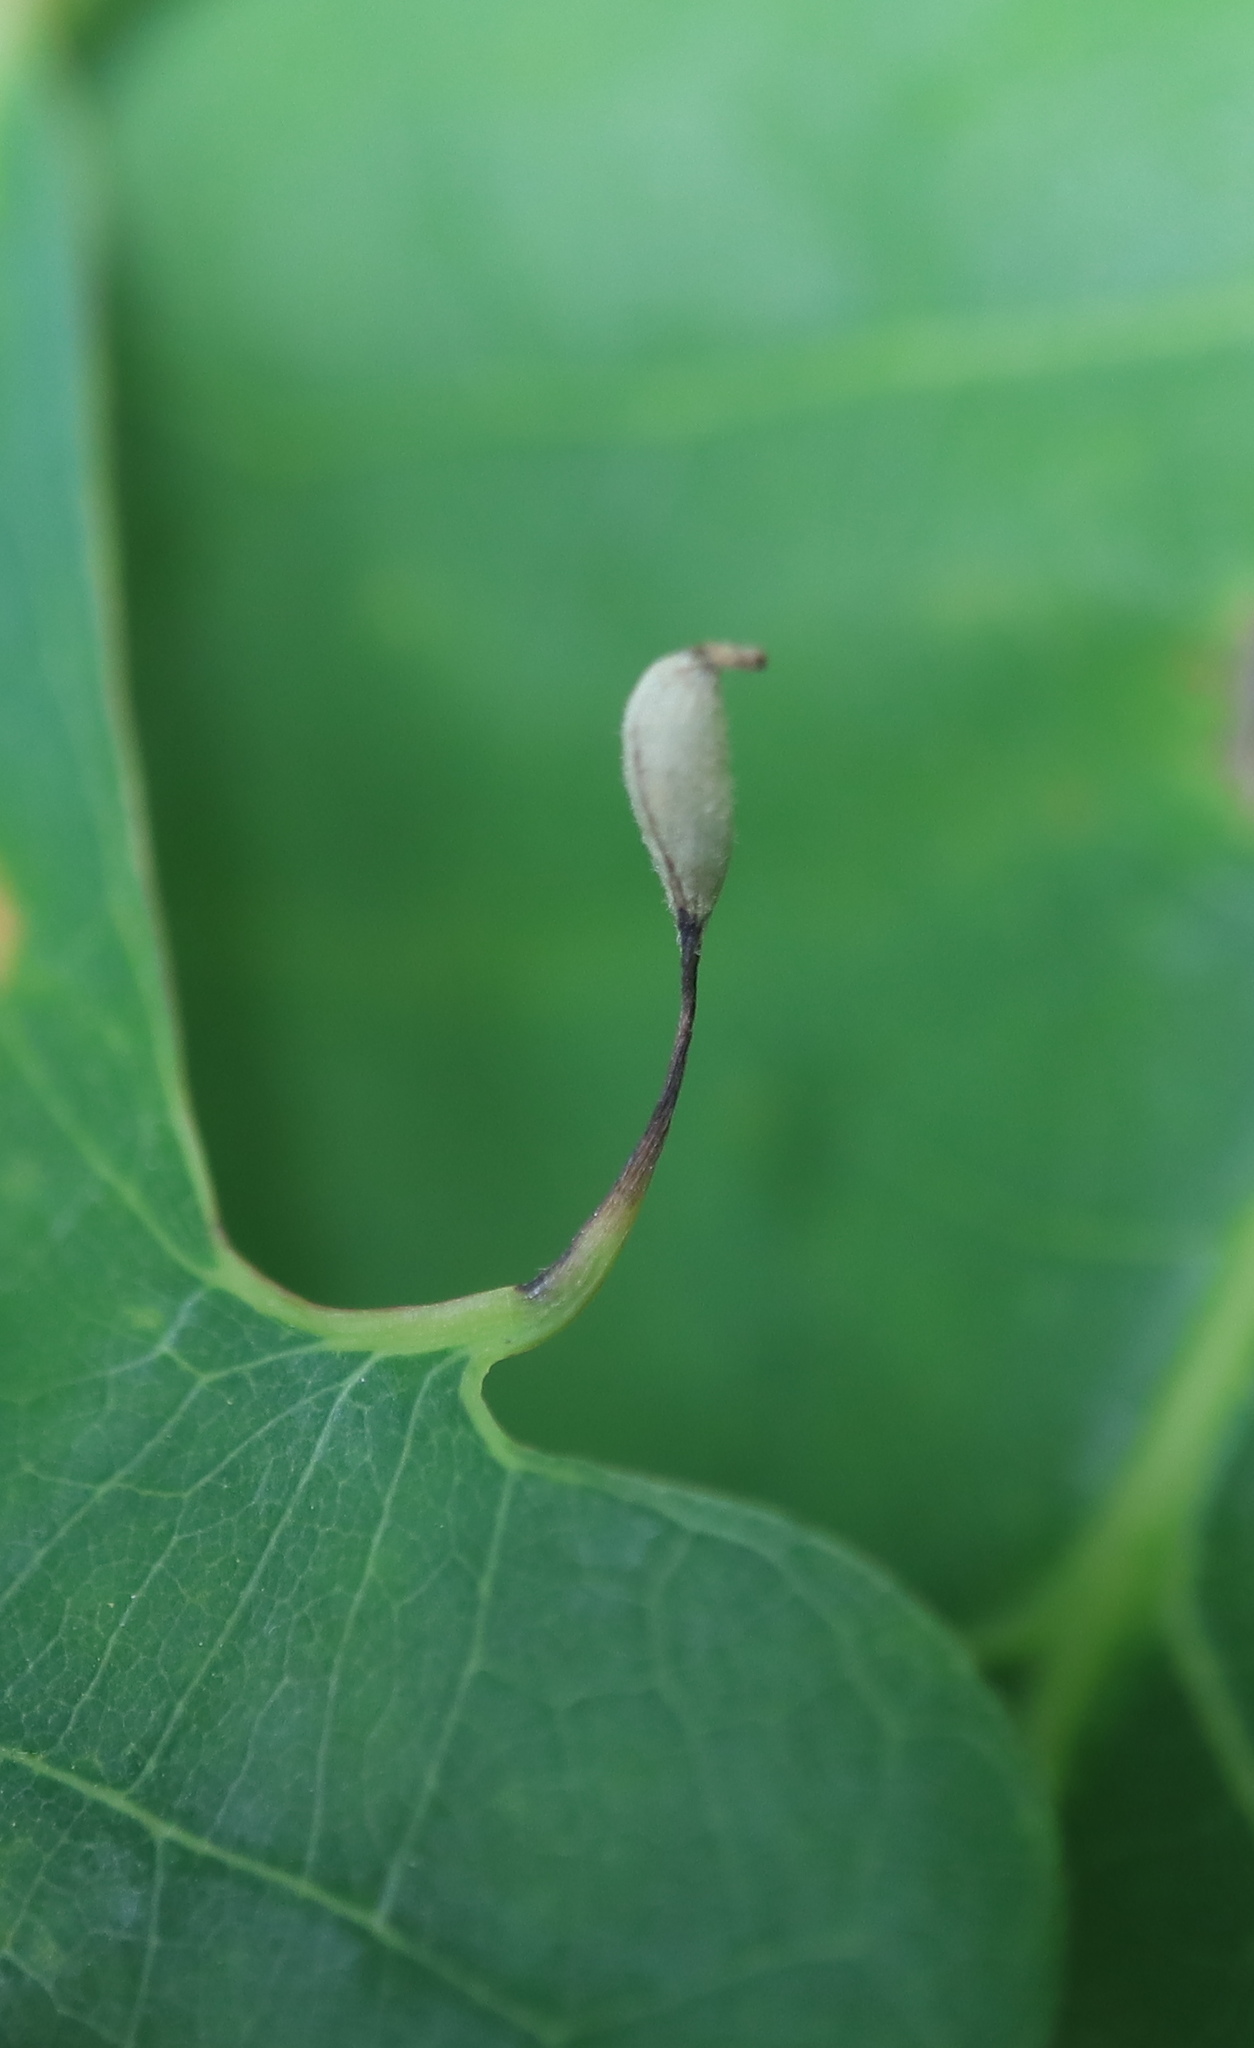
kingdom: Animalia
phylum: Arthropoda
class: Insecta
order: Hymenoptera
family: Cynipidae
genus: Andricus
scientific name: Andricus
